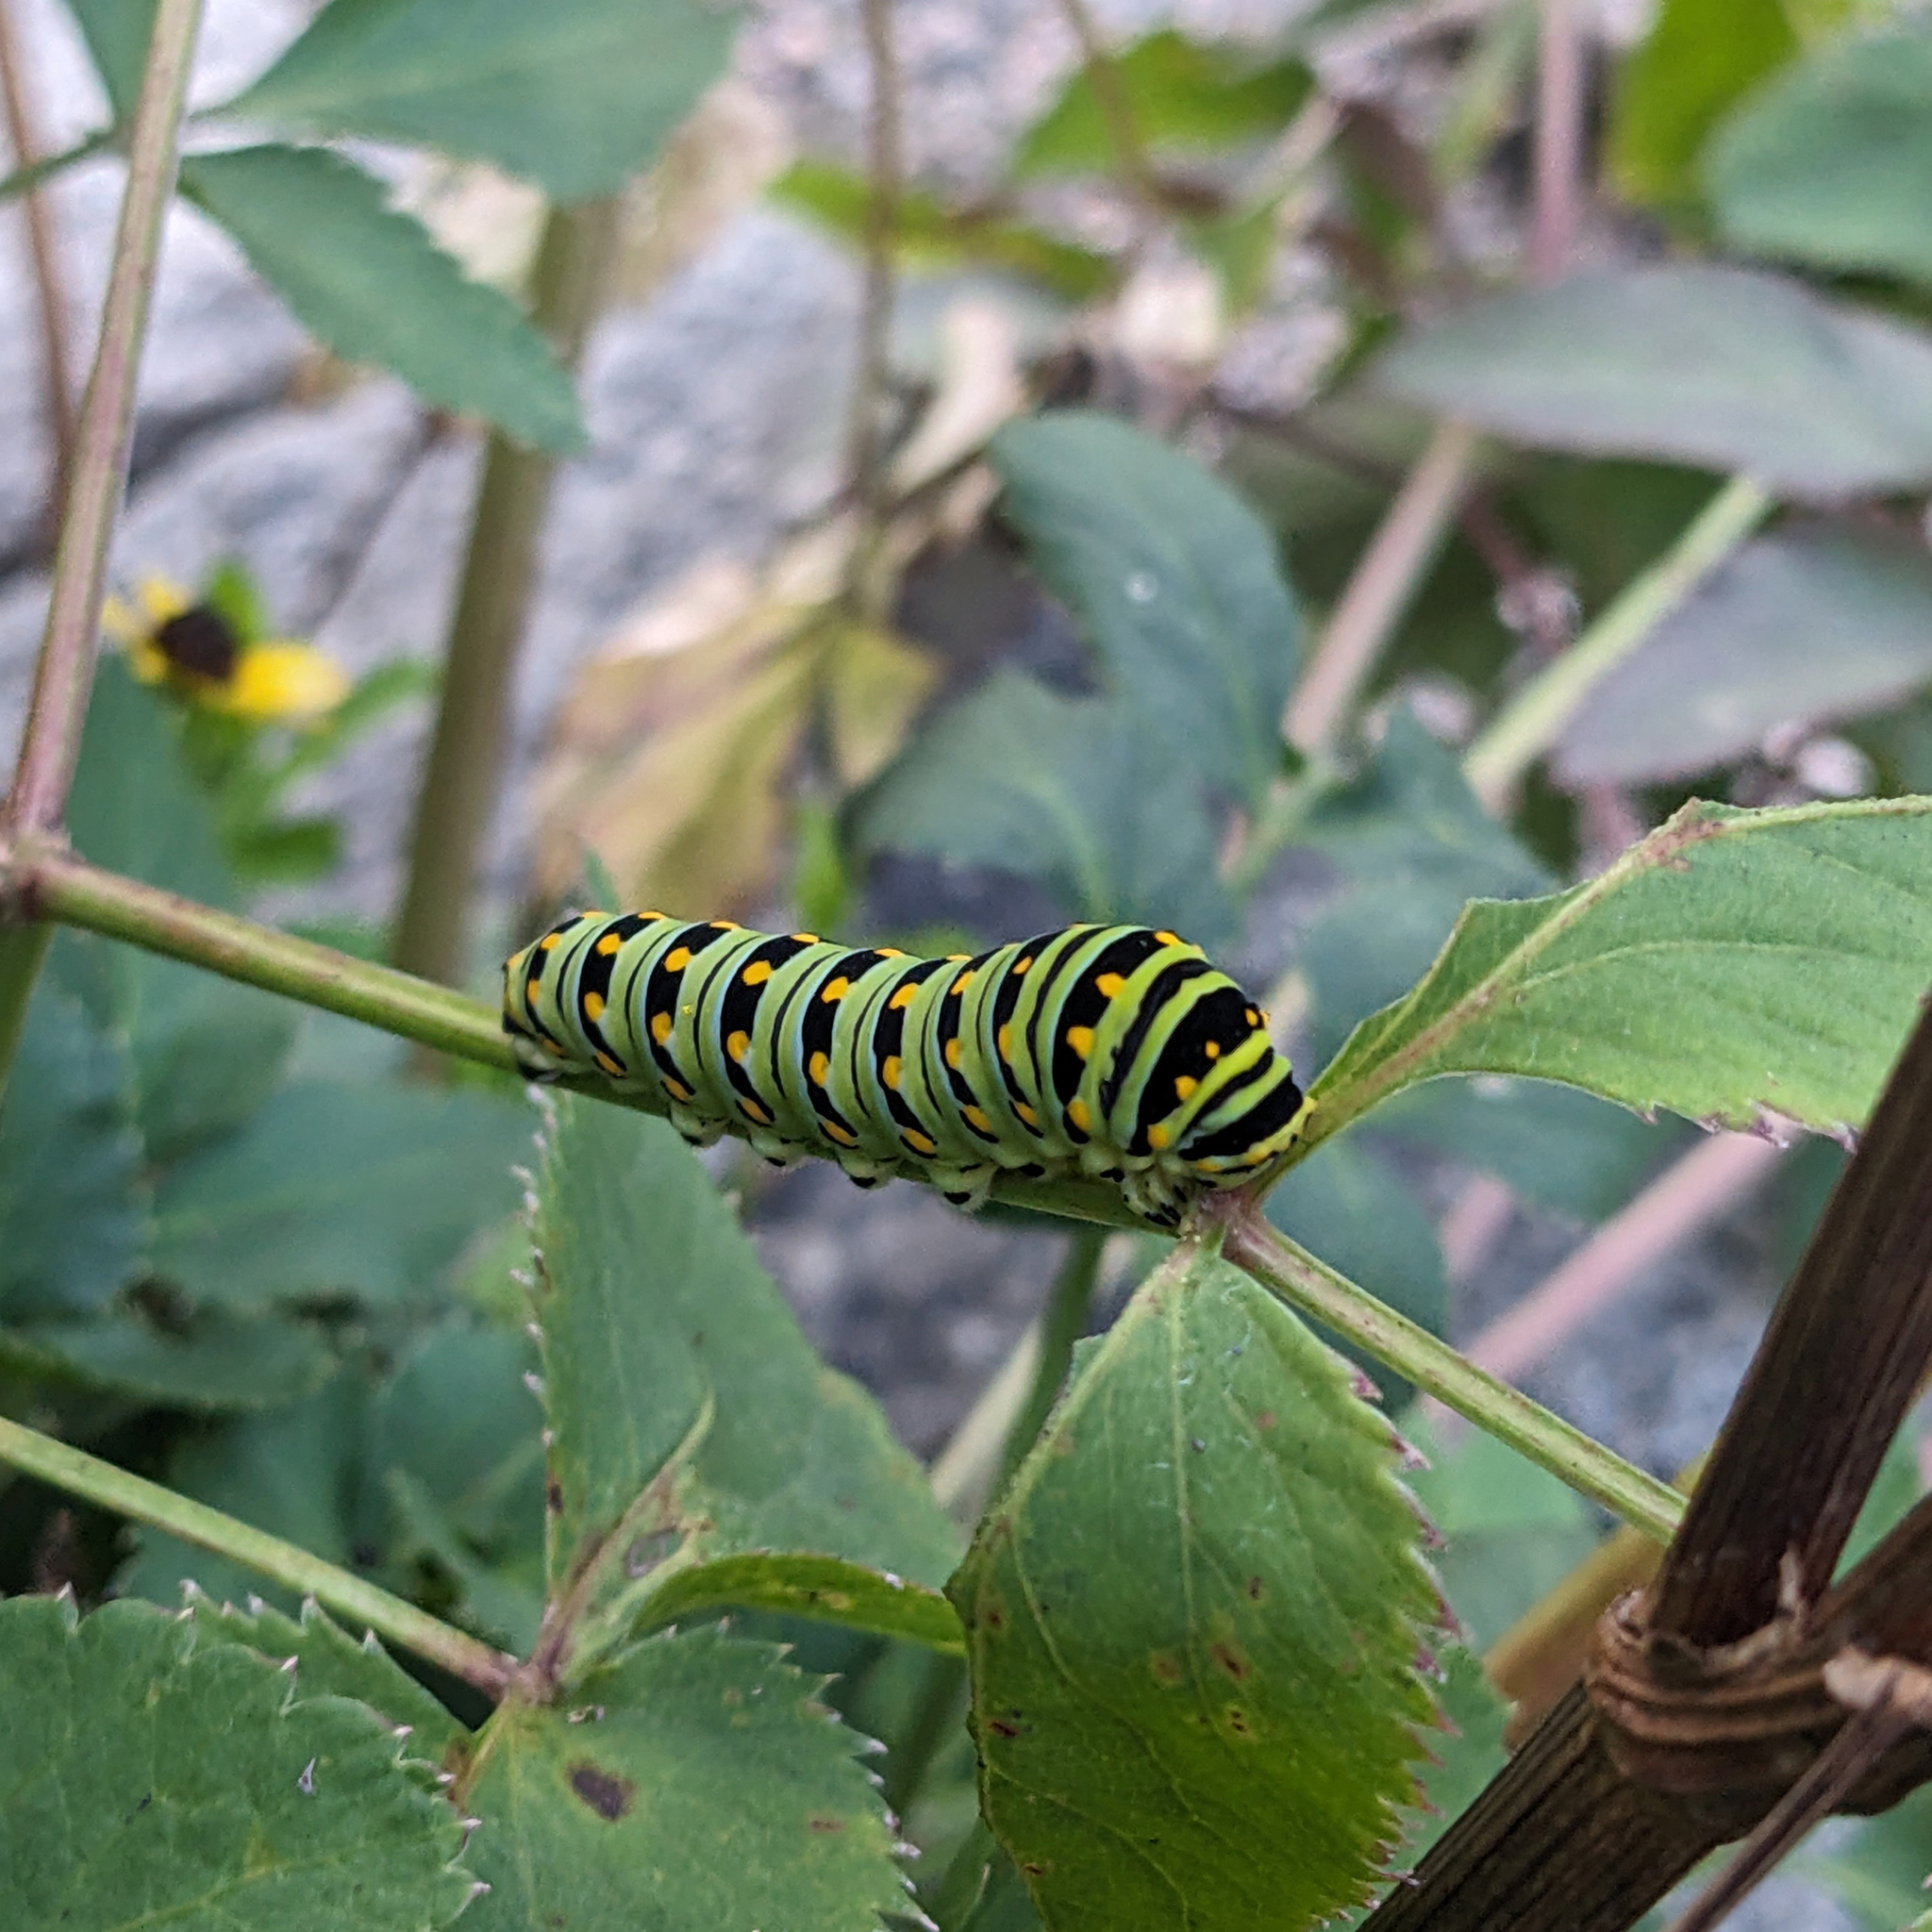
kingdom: Animalia
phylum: Arthropoda
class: Insecta
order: Lepidoptera
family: Papilionidae
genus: Papilio
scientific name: Papilio polyxenes
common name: Black swallowtail
